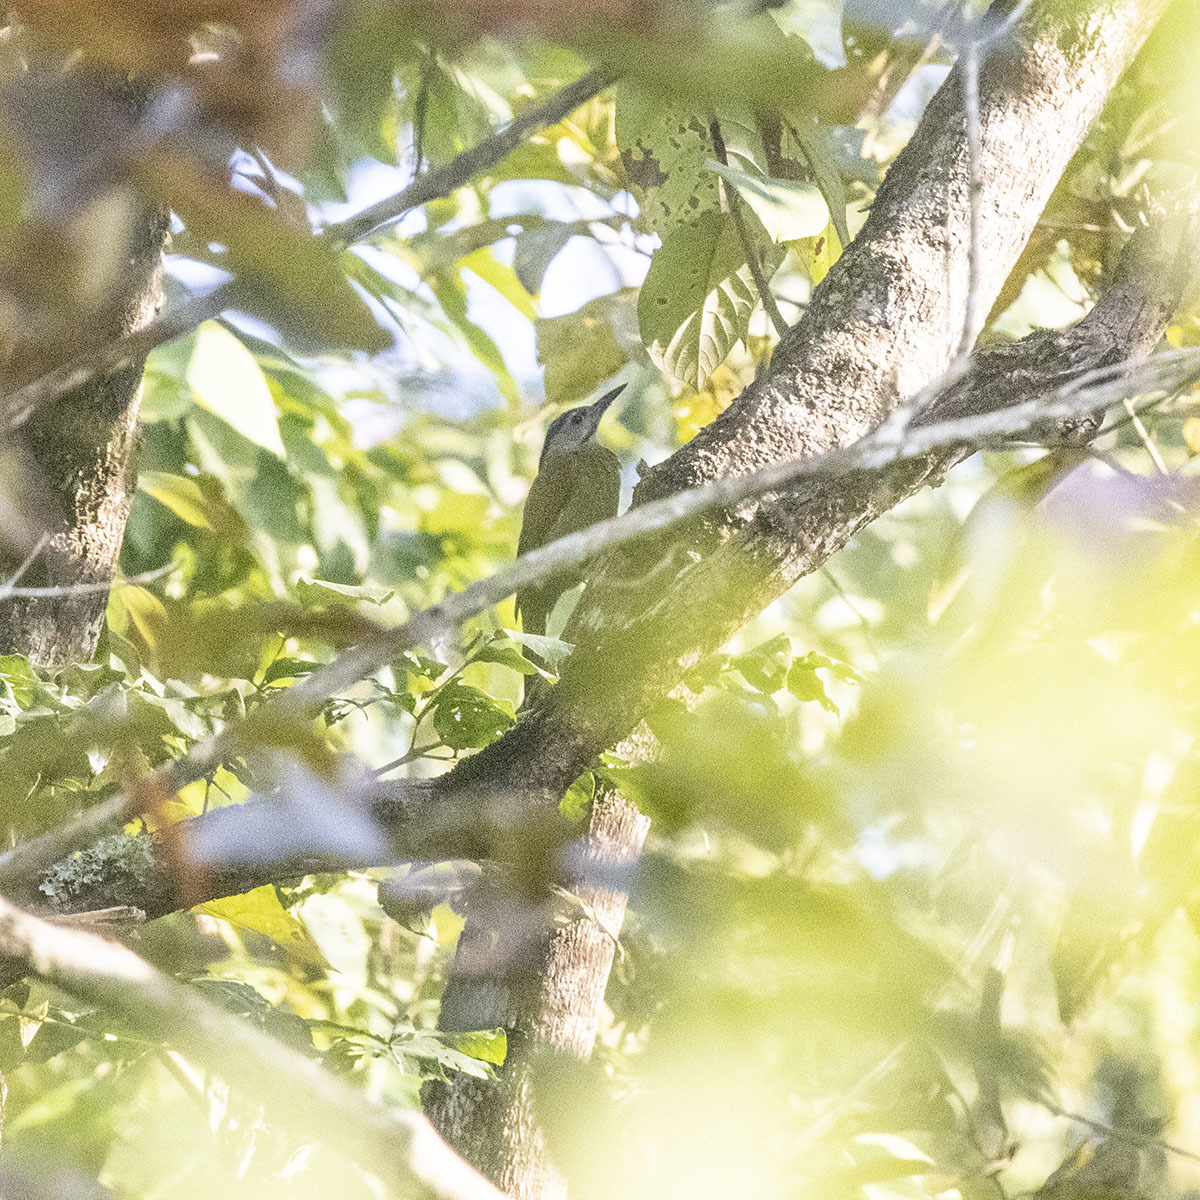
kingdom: Animalia
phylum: Chordata
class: Aves
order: Piciformes
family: Picidae
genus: Picus
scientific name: Picus canus
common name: Grey-headed woodpecker
